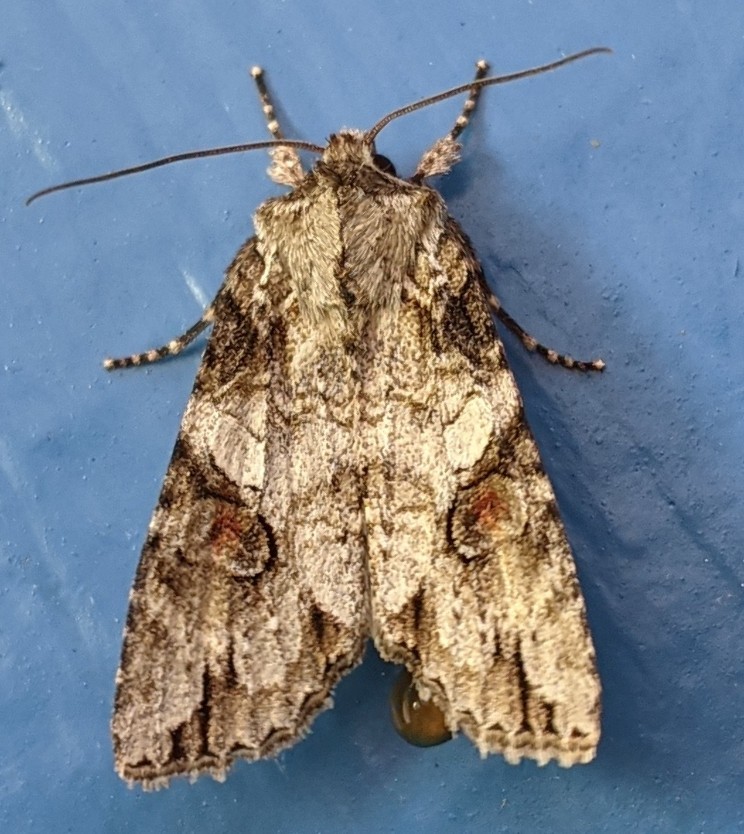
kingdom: Animalia
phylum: Arthropoda
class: Insecta
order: Lepidoptera
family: Noctuidae
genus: Achatia
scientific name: Achatia latex
